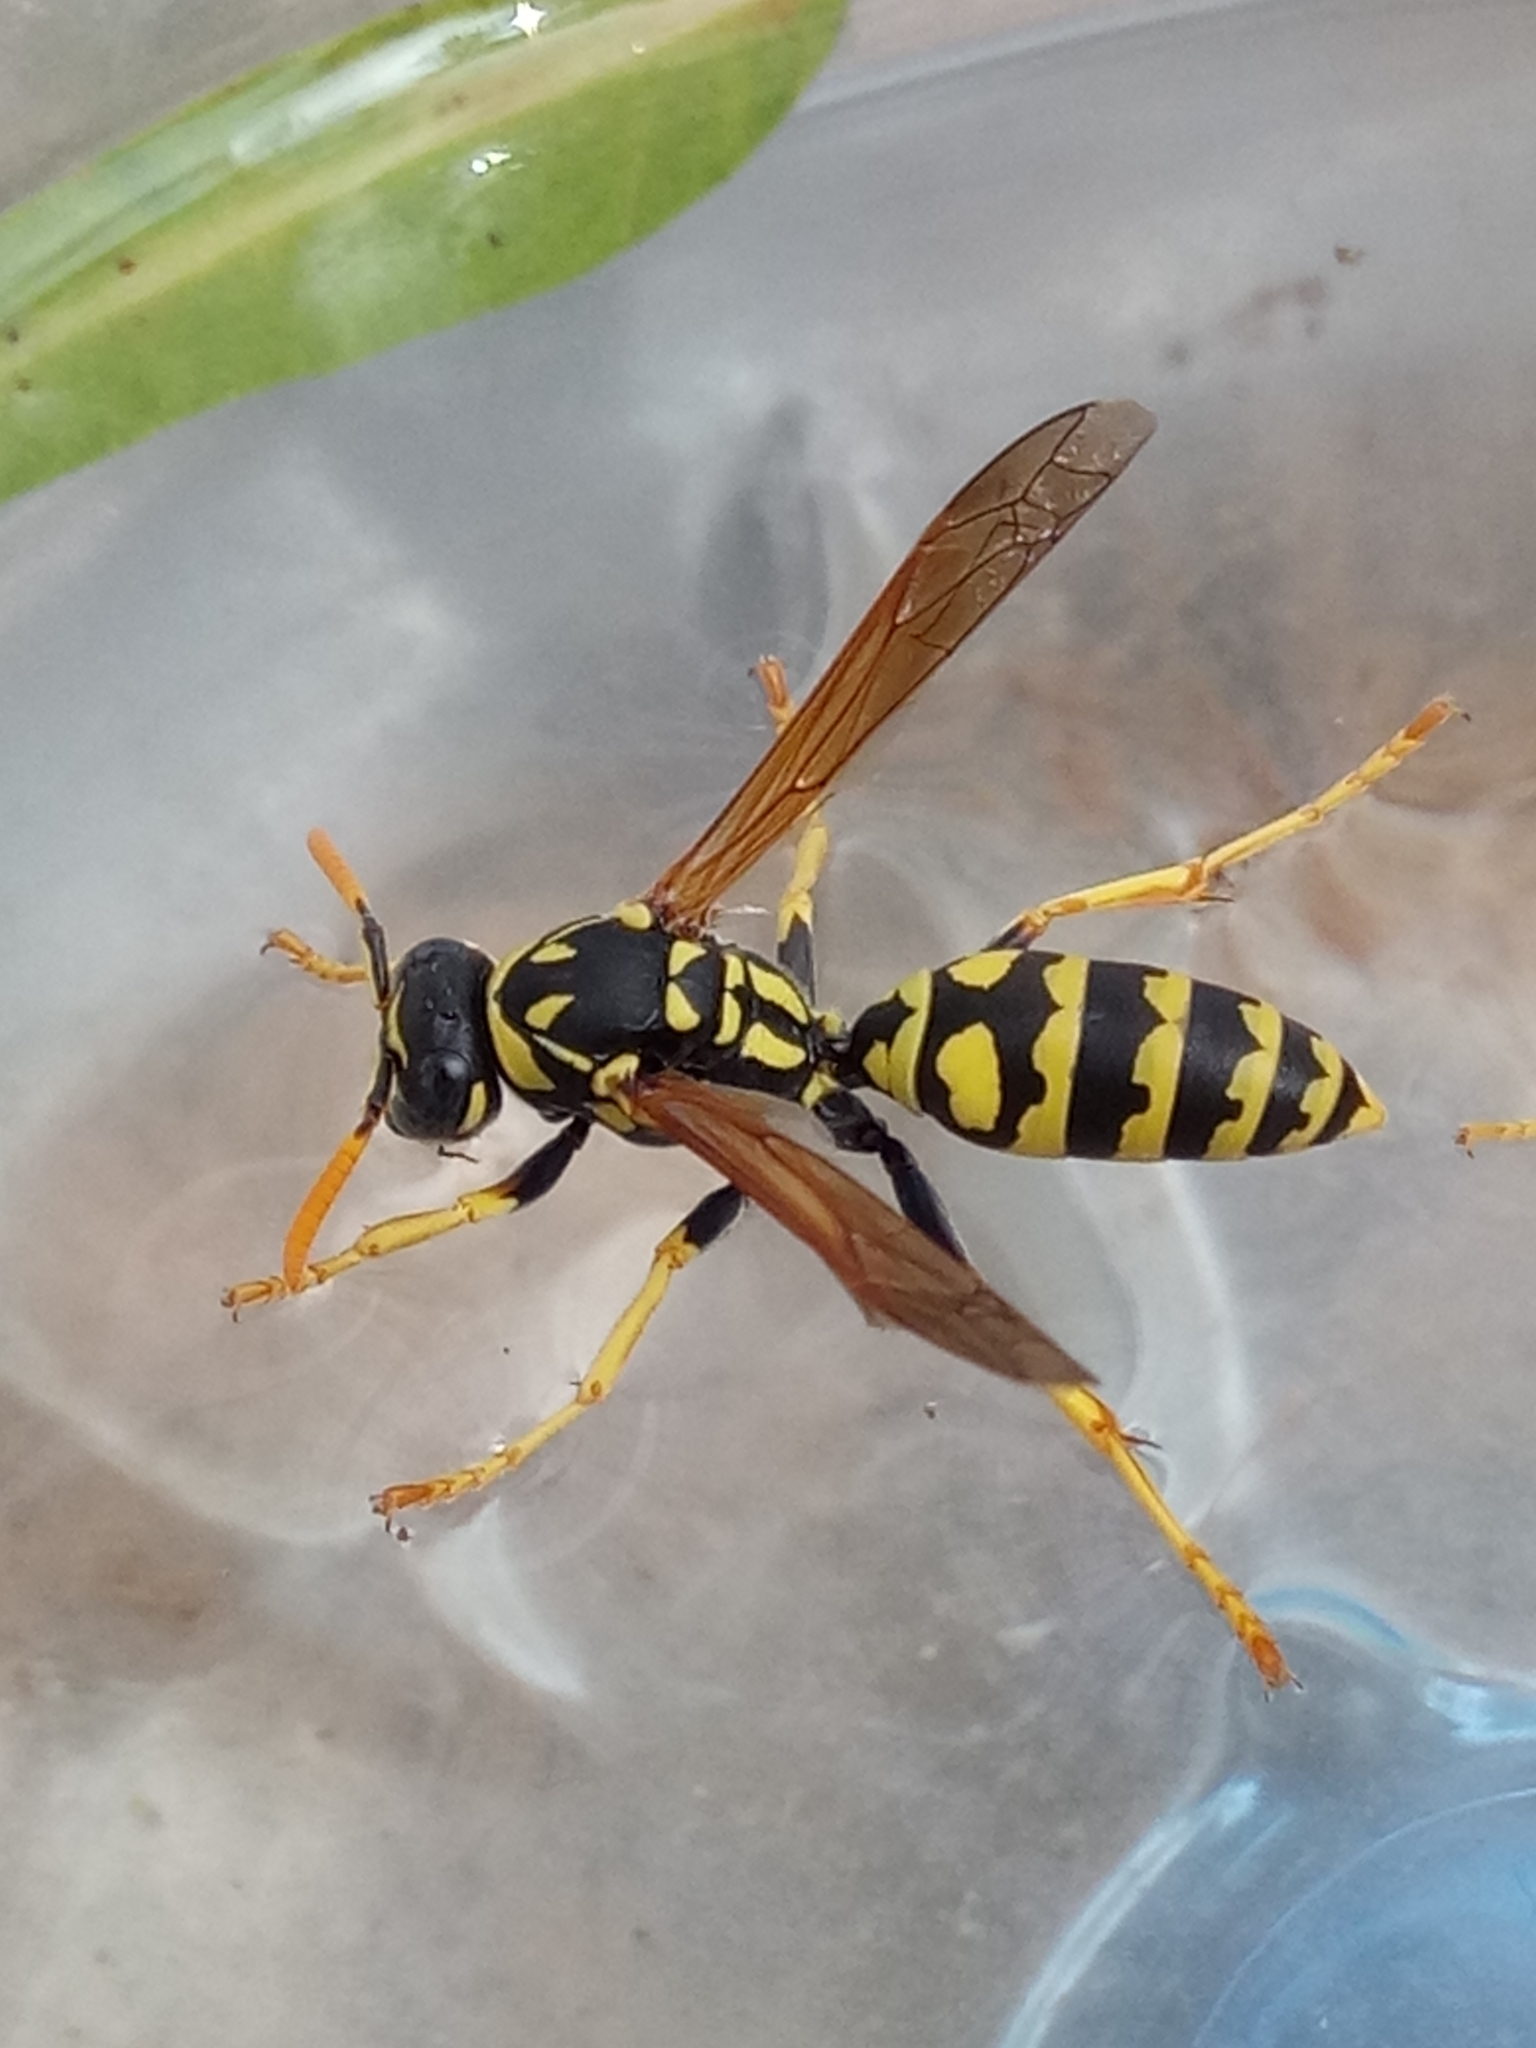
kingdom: Animalia
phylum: Arthropoda
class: Insecta
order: Hymenoptera
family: Eumenidae
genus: Polistes
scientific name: Polistes dominula
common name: Paper wasp
